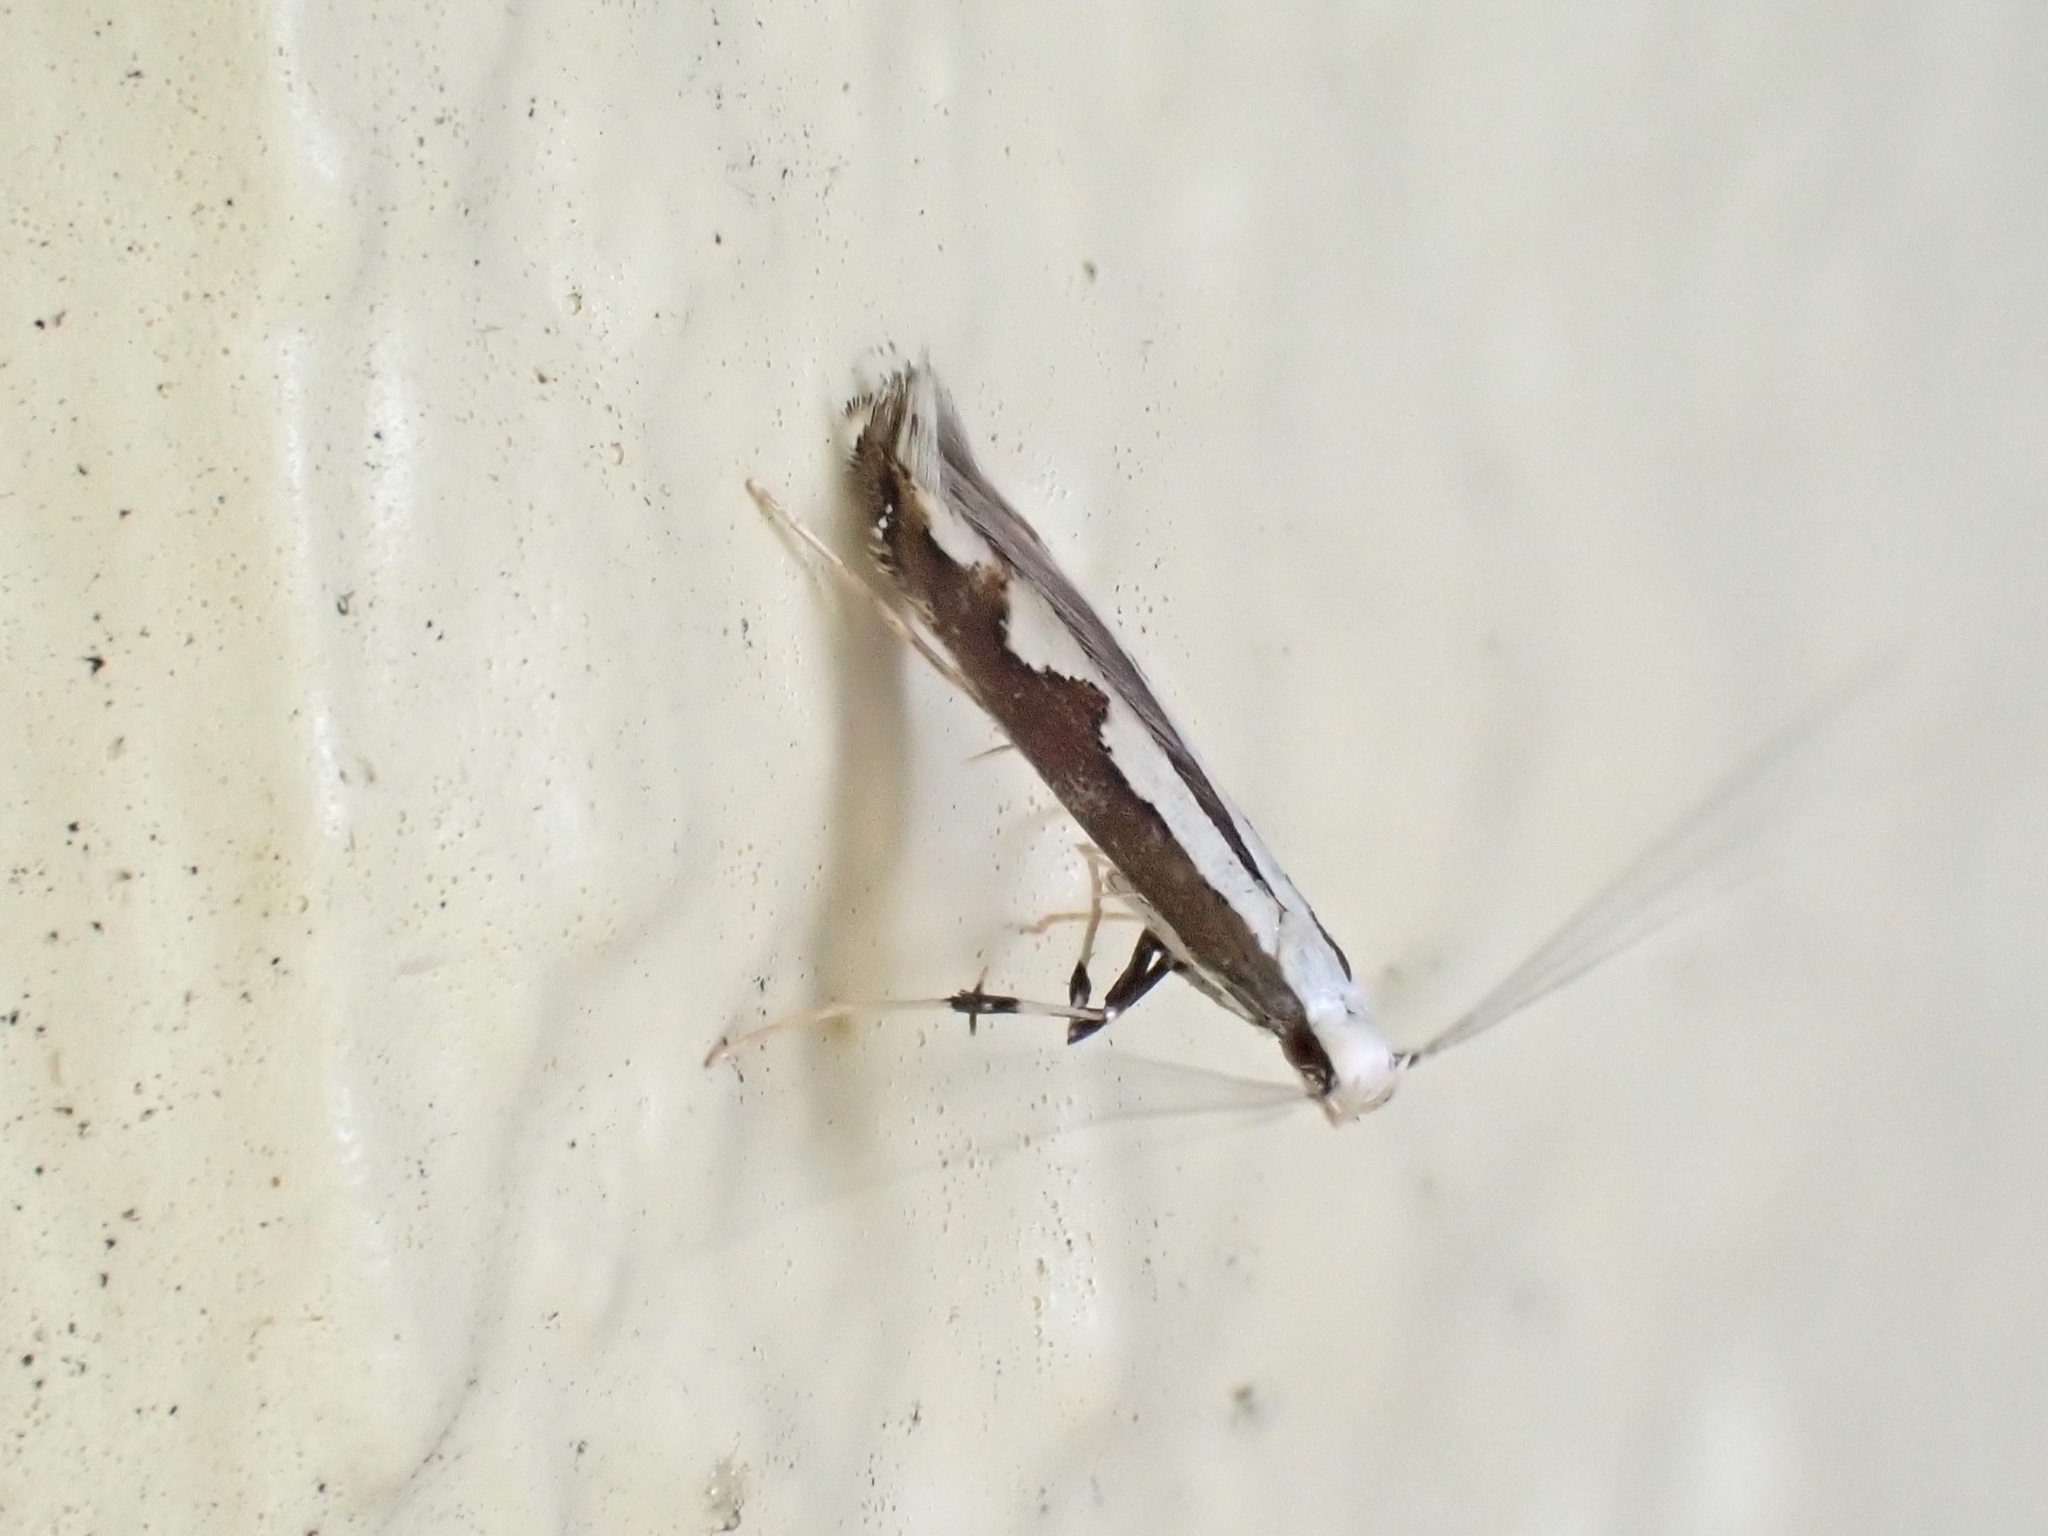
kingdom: Animalia
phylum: Arthropoda
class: Insecta
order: Lepidoptera
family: Gracillariidae
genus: Dialectica
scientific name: Dialectica scalariella
